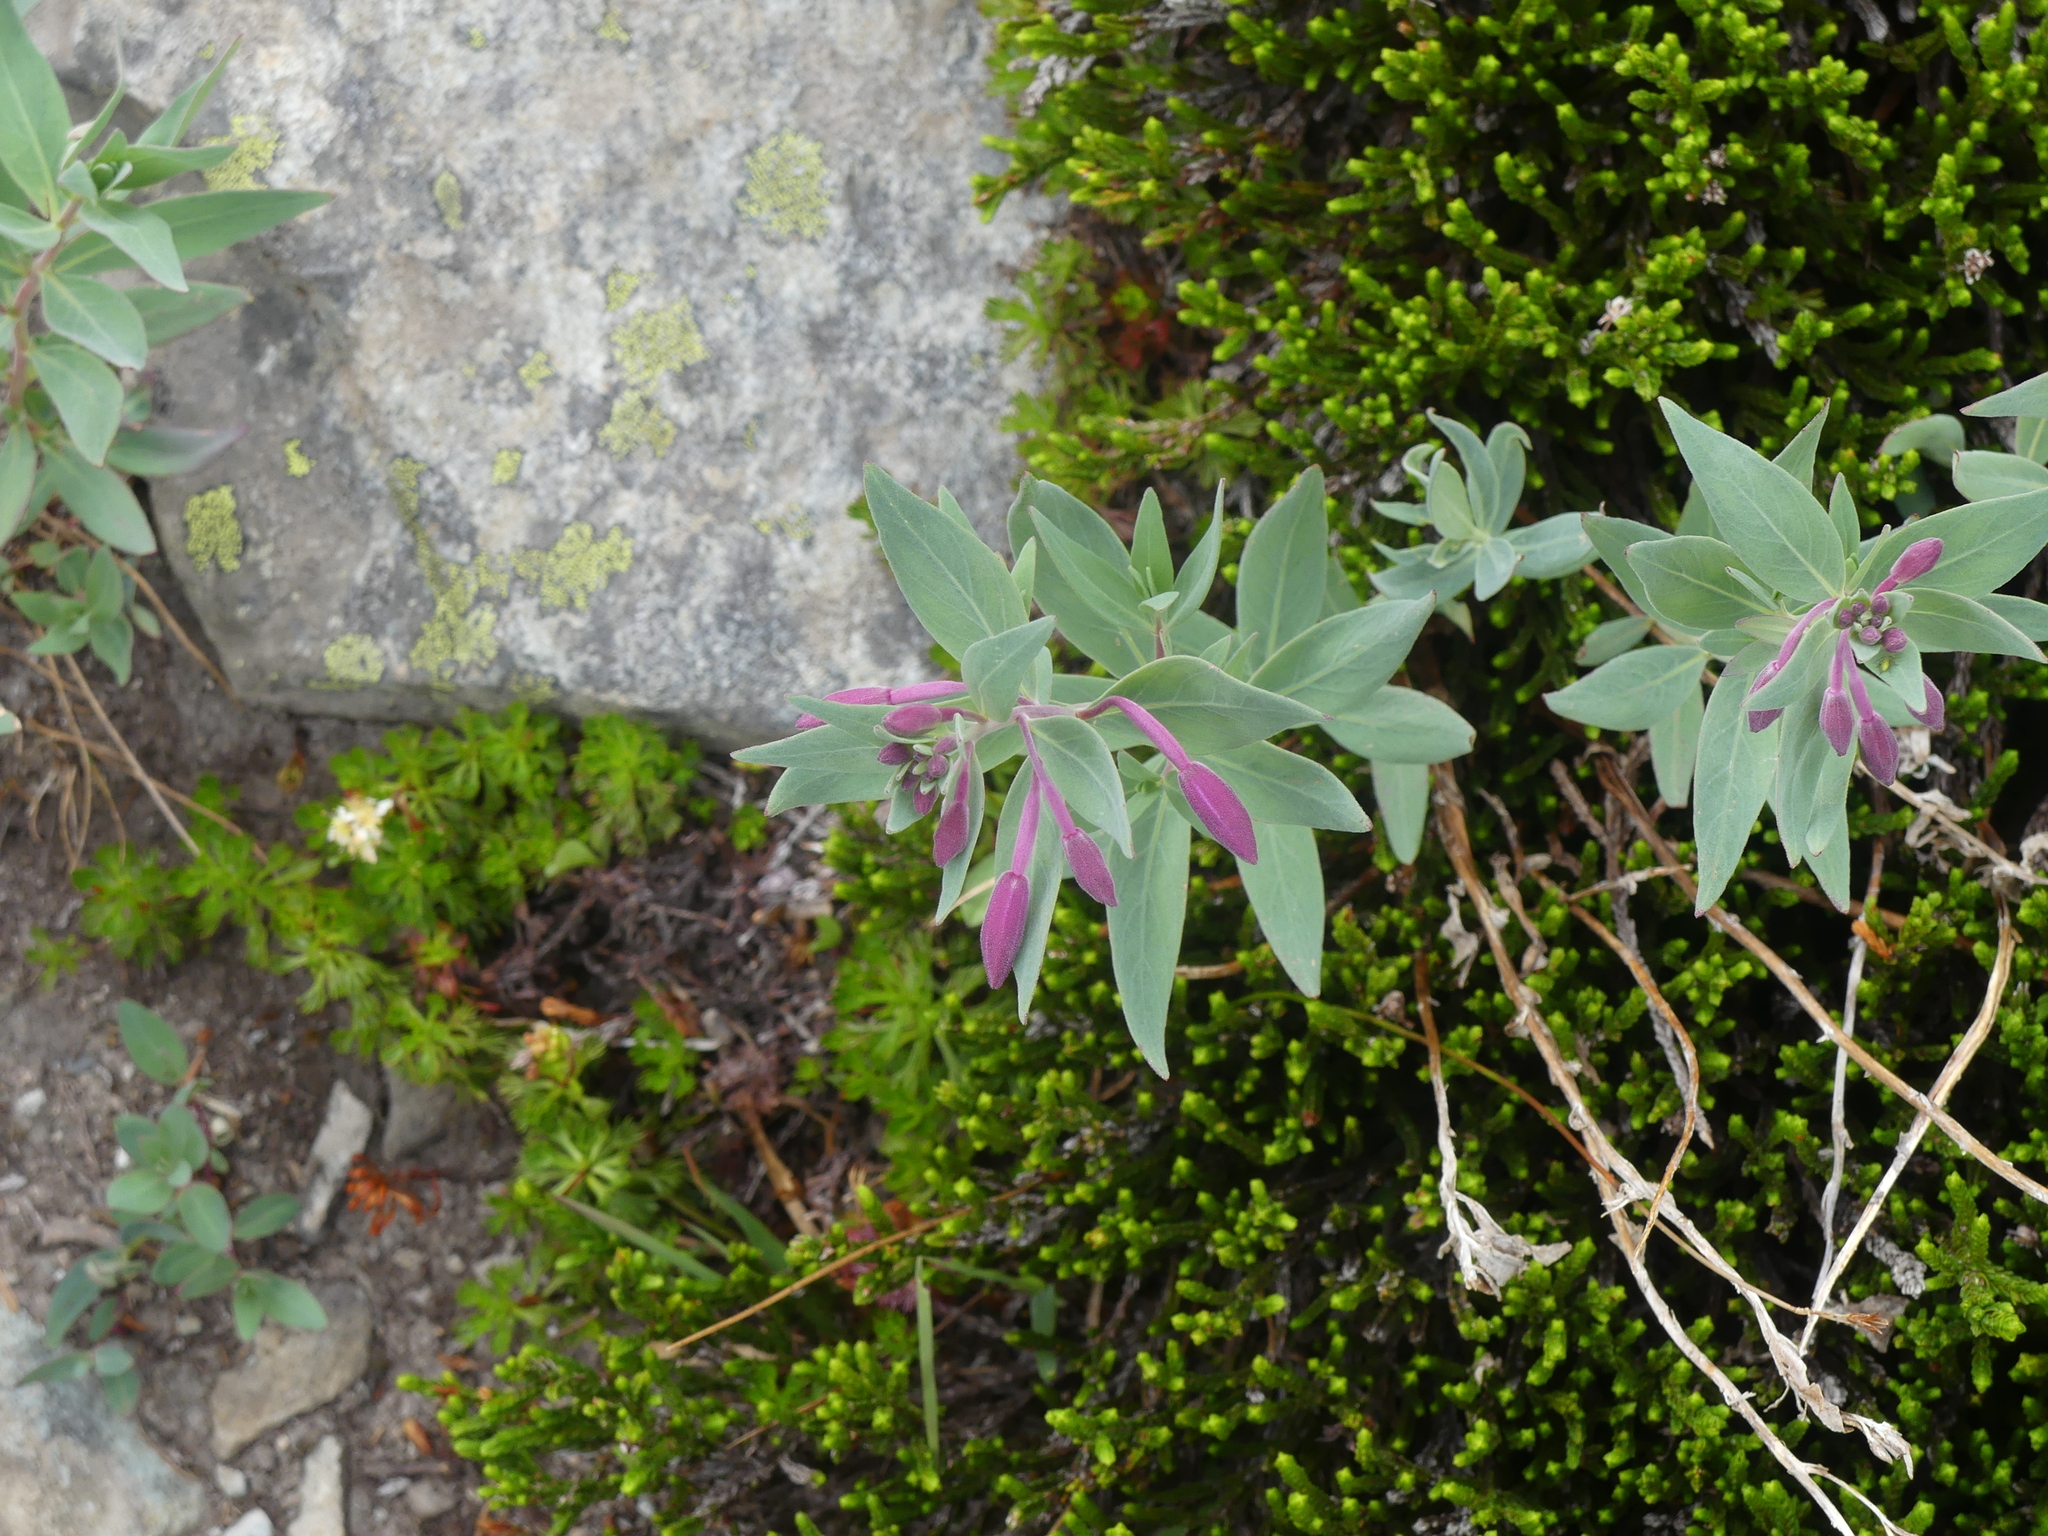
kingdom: Plantae
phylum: Tracheophyta
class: Magnoliopsida
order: Myrtales
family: Onagraceae
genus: Chamaenerion
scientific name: Chamaenerion latifolium
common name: Dwarf fireweed
